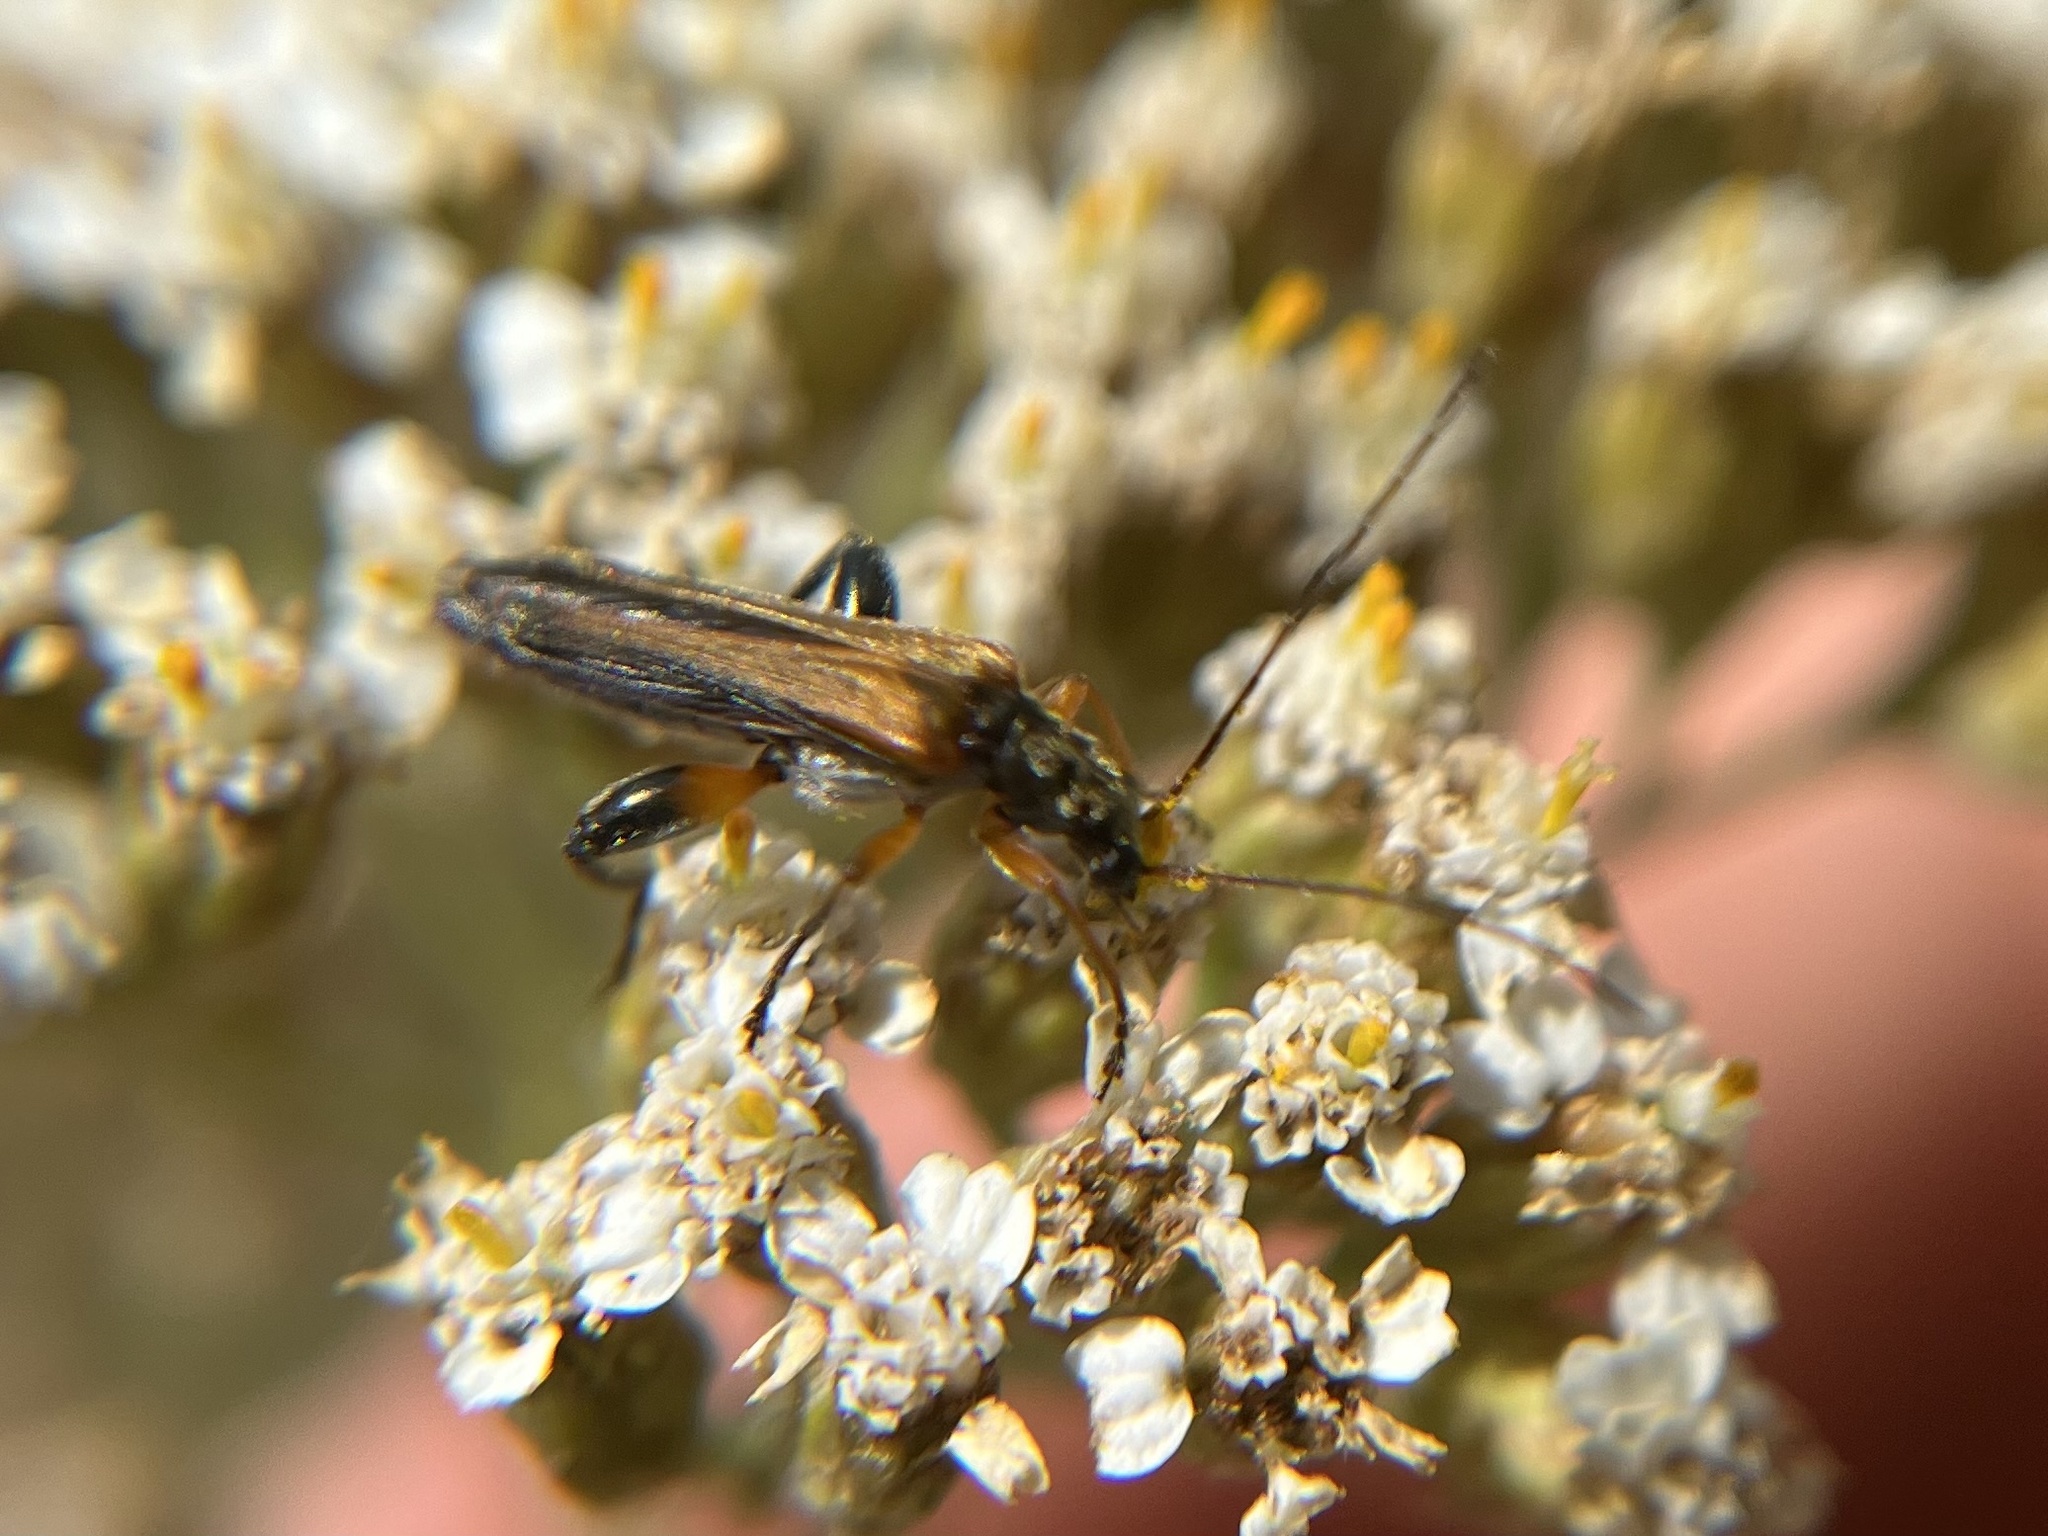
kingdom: Animalia
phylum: Arthropoda
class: Insecta
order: Coleoptera
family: Oedemeridae
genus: Oedemera
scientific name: Oedemera podagrariae
